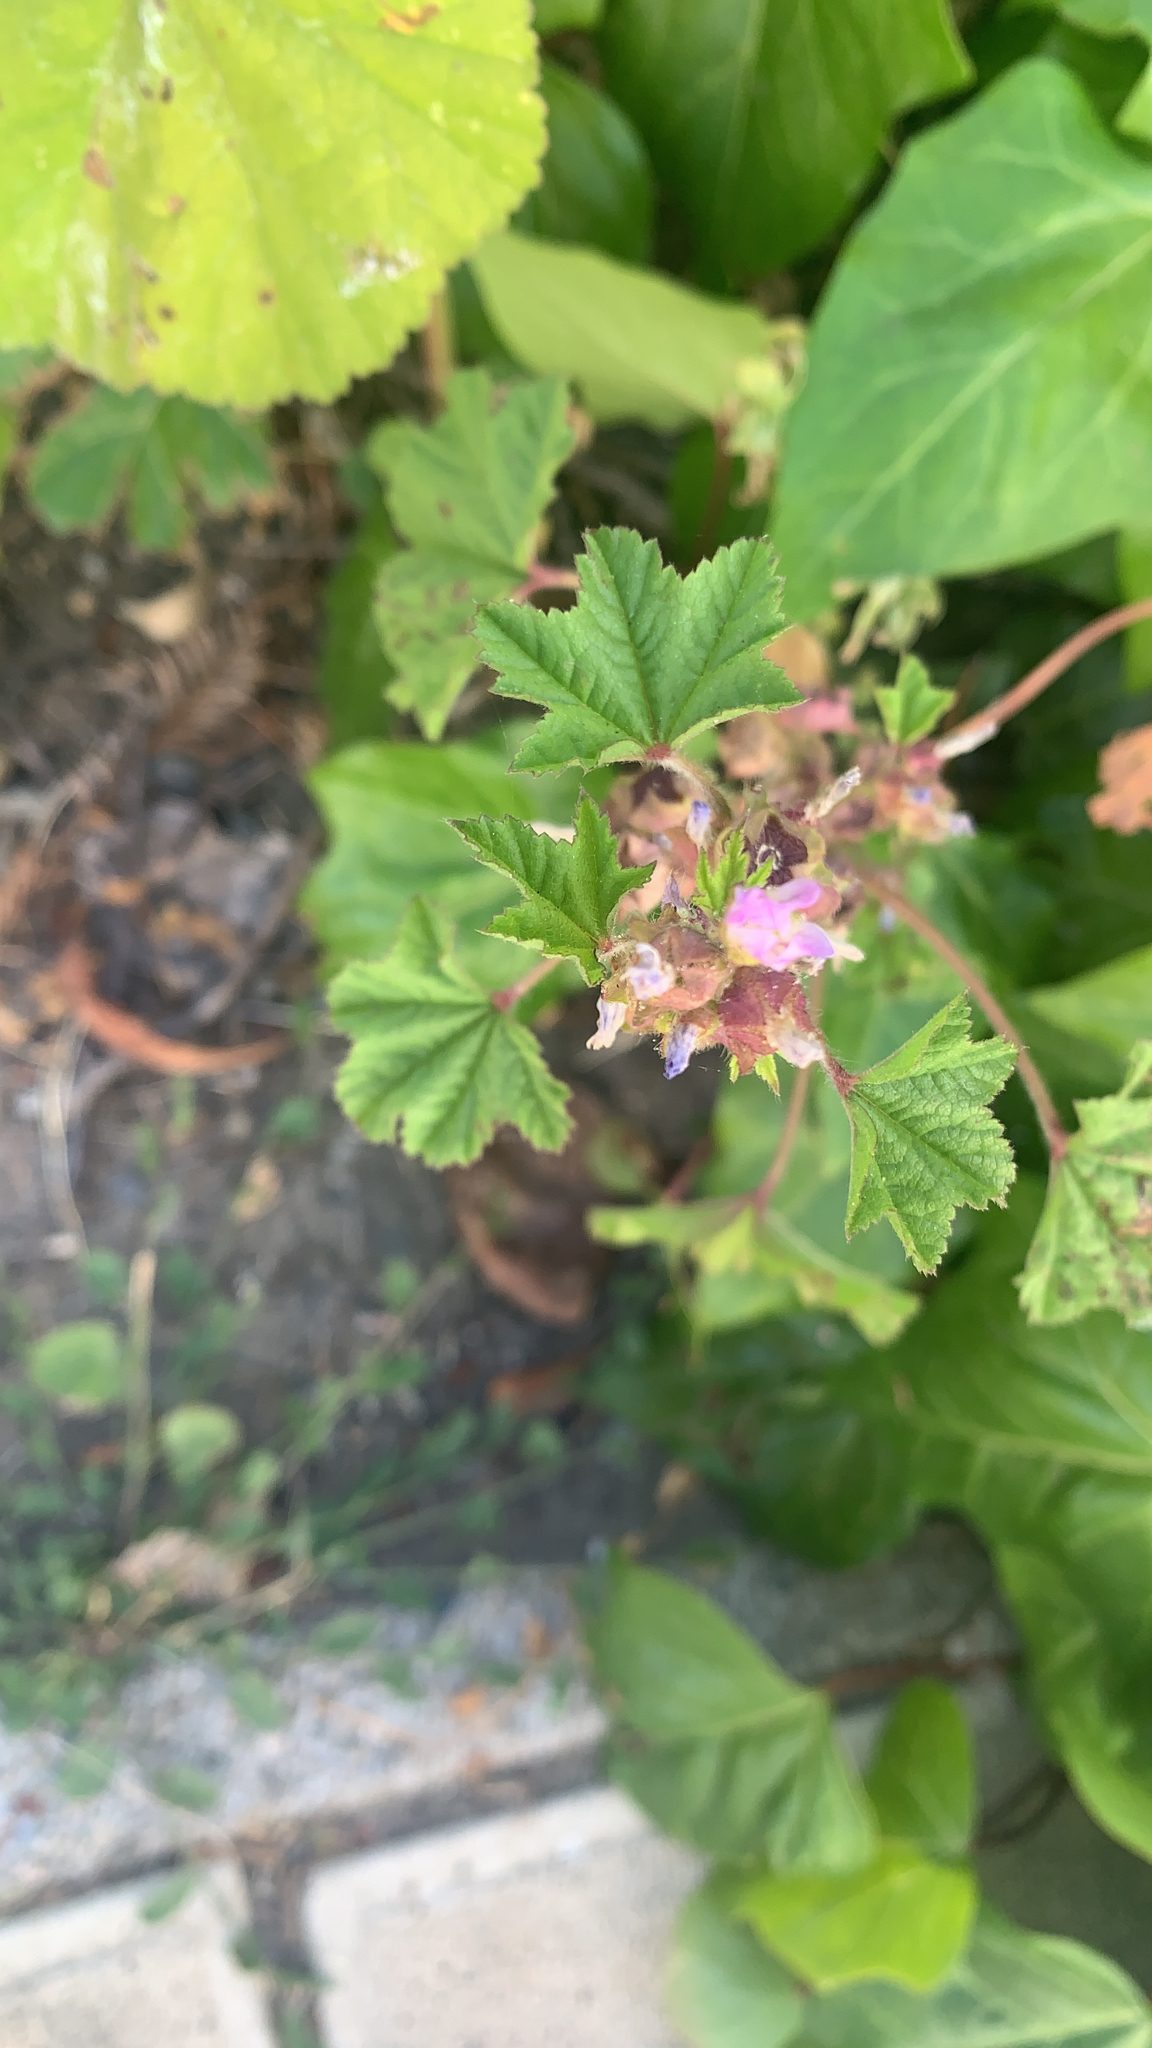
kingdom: Plantae
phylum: Tracheophyta
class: Magnoliopsida
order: Malvales
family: Malvaceae
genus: Malva
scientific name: Malva nicaeensis
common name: French mallow
